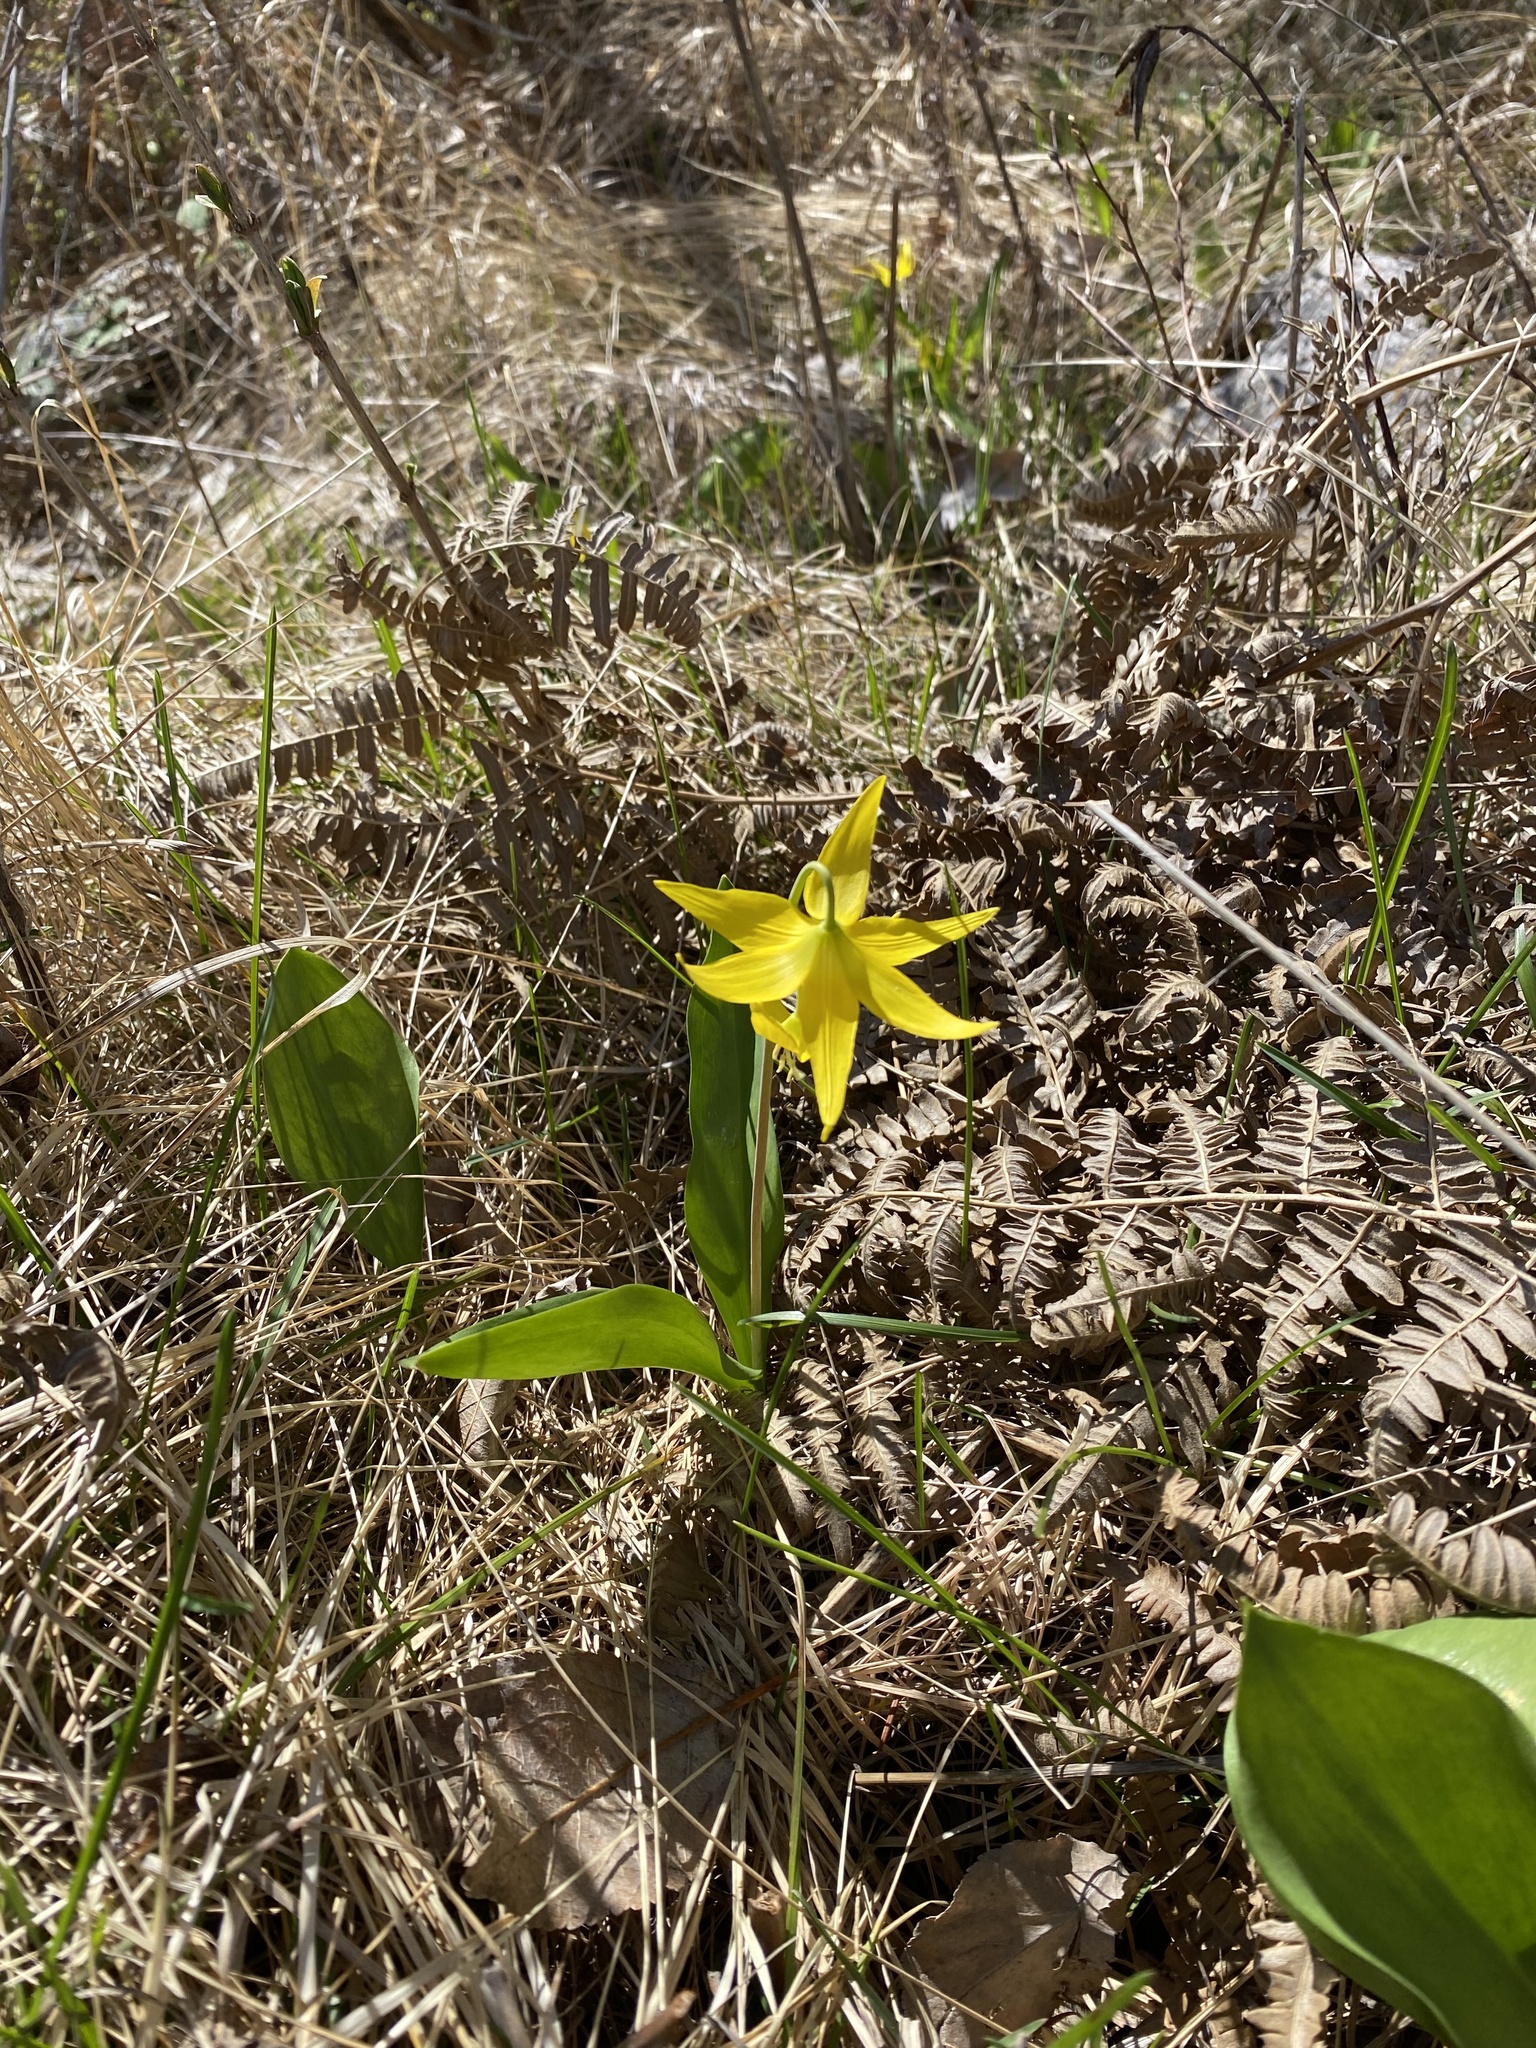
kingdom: Plantae
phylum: Tracheophyta
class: Liliopsida
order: Liliales
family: Liliaceae
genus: Erythronium
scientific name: Erythronium grandiflorum
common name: Avalanche-lily
